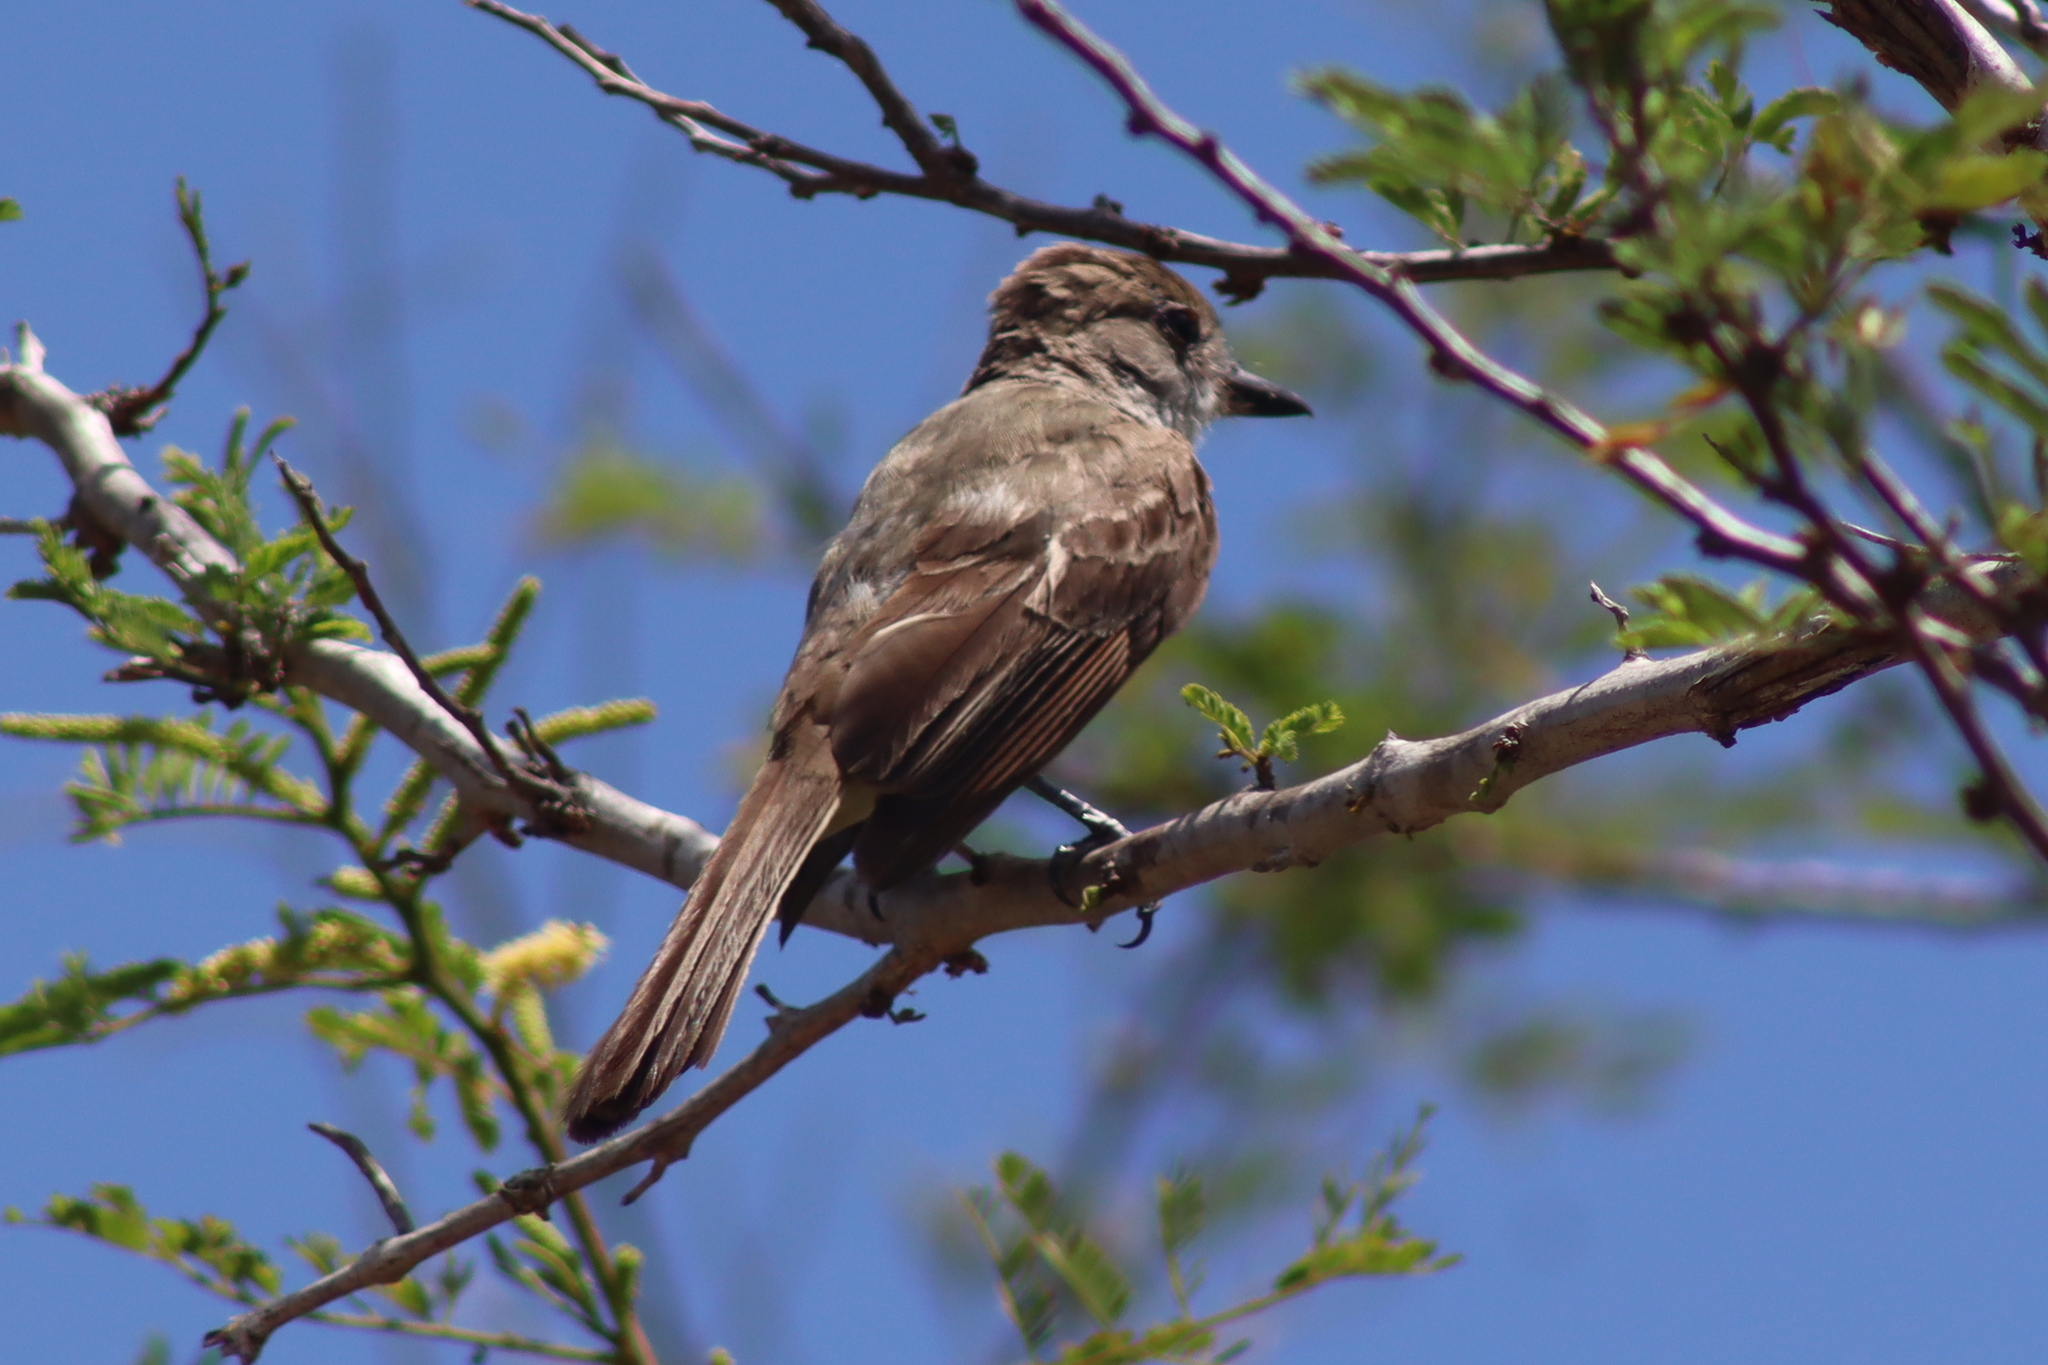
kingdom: Animalia
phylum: Chordata
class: Aves
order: Passeriformes
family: Tyrannidae
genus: Myiarchus
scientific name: Myiarchus tyrannulus
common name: Brown-crested flycatcher
